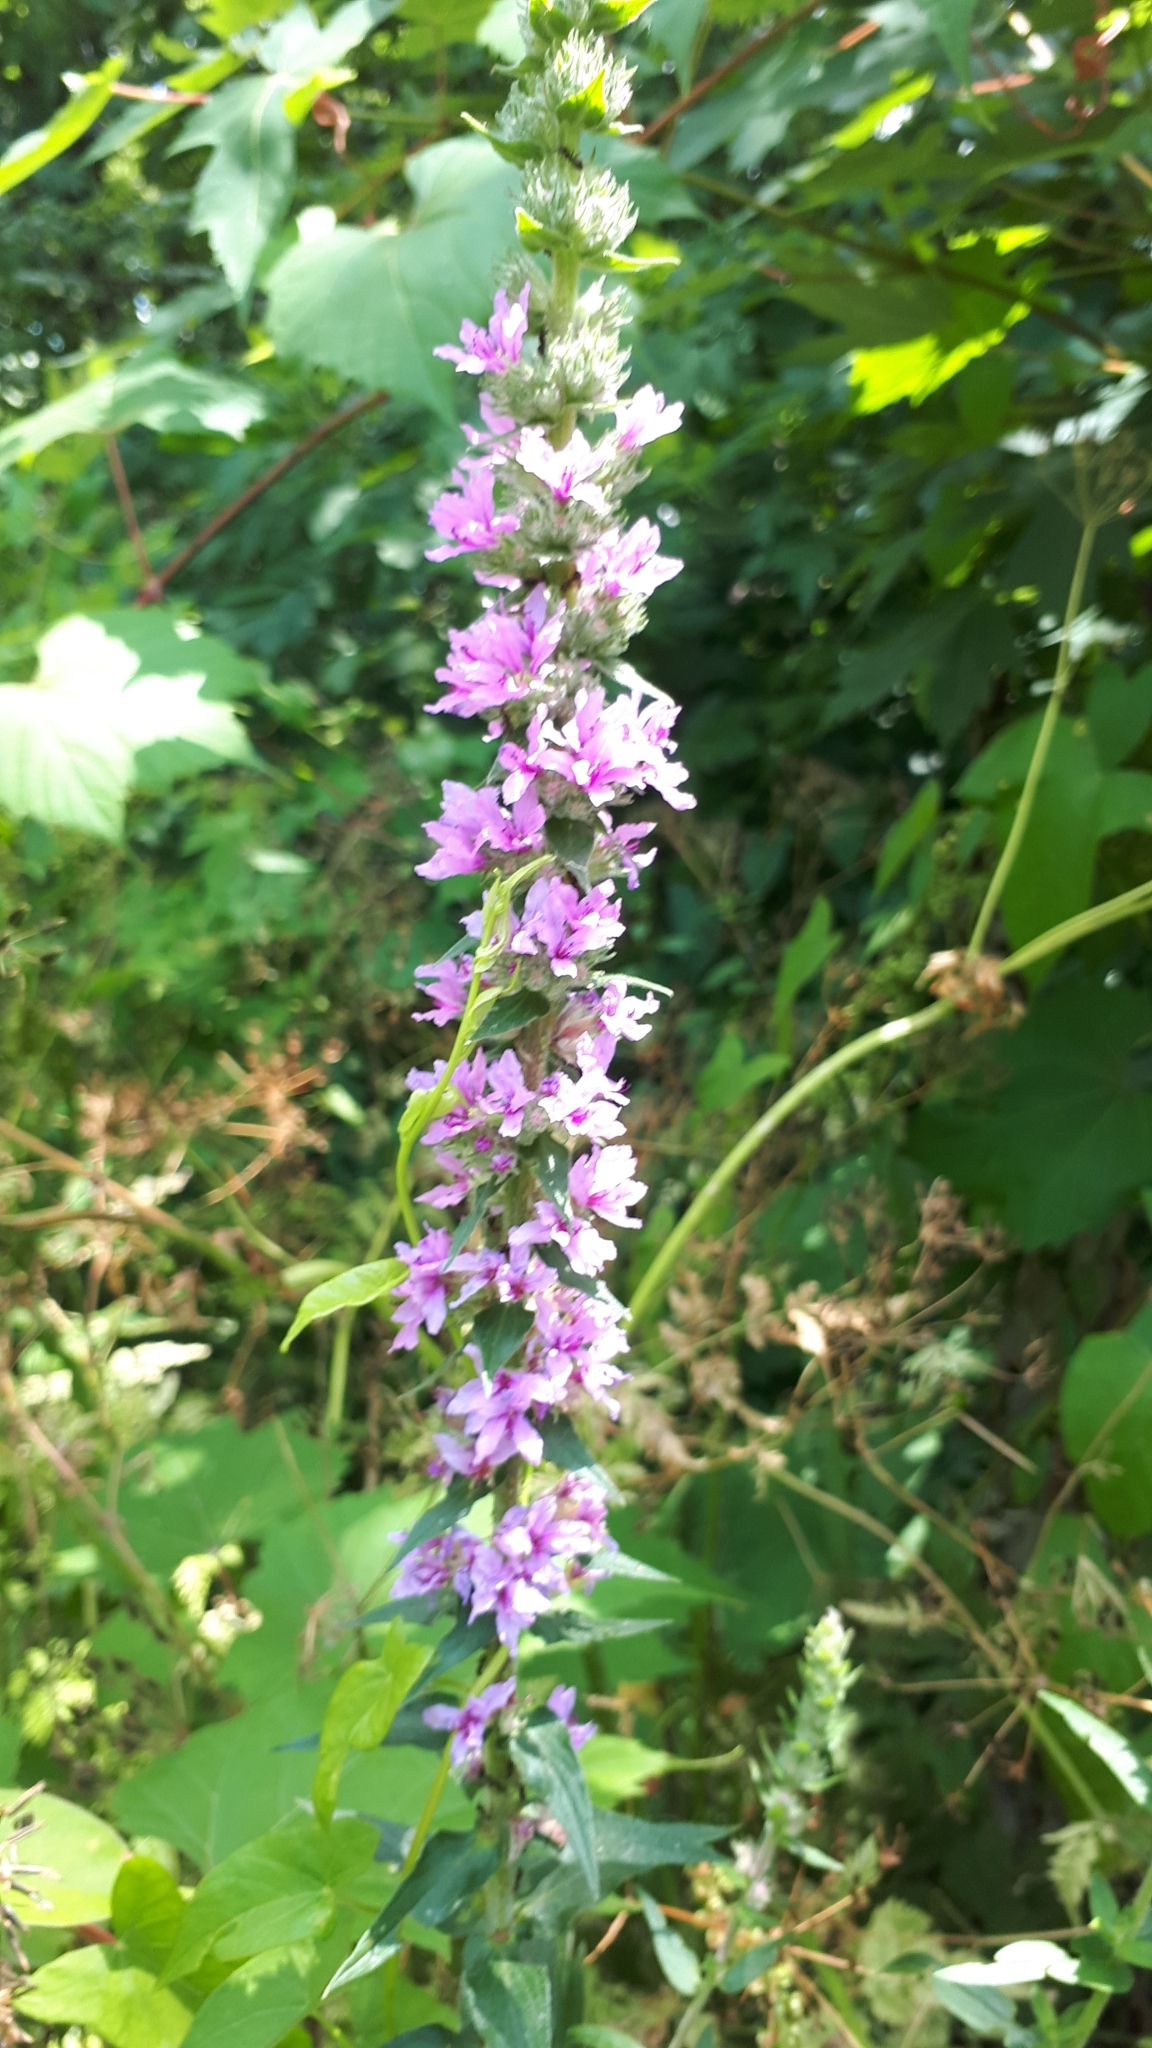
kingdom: Plantae
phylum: Tracheophyta
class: Magnoliopsida
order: Myrtales
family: Lythraceae
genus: Lythrum
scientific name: Lythrum salicaria
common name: Purple loosestrife
